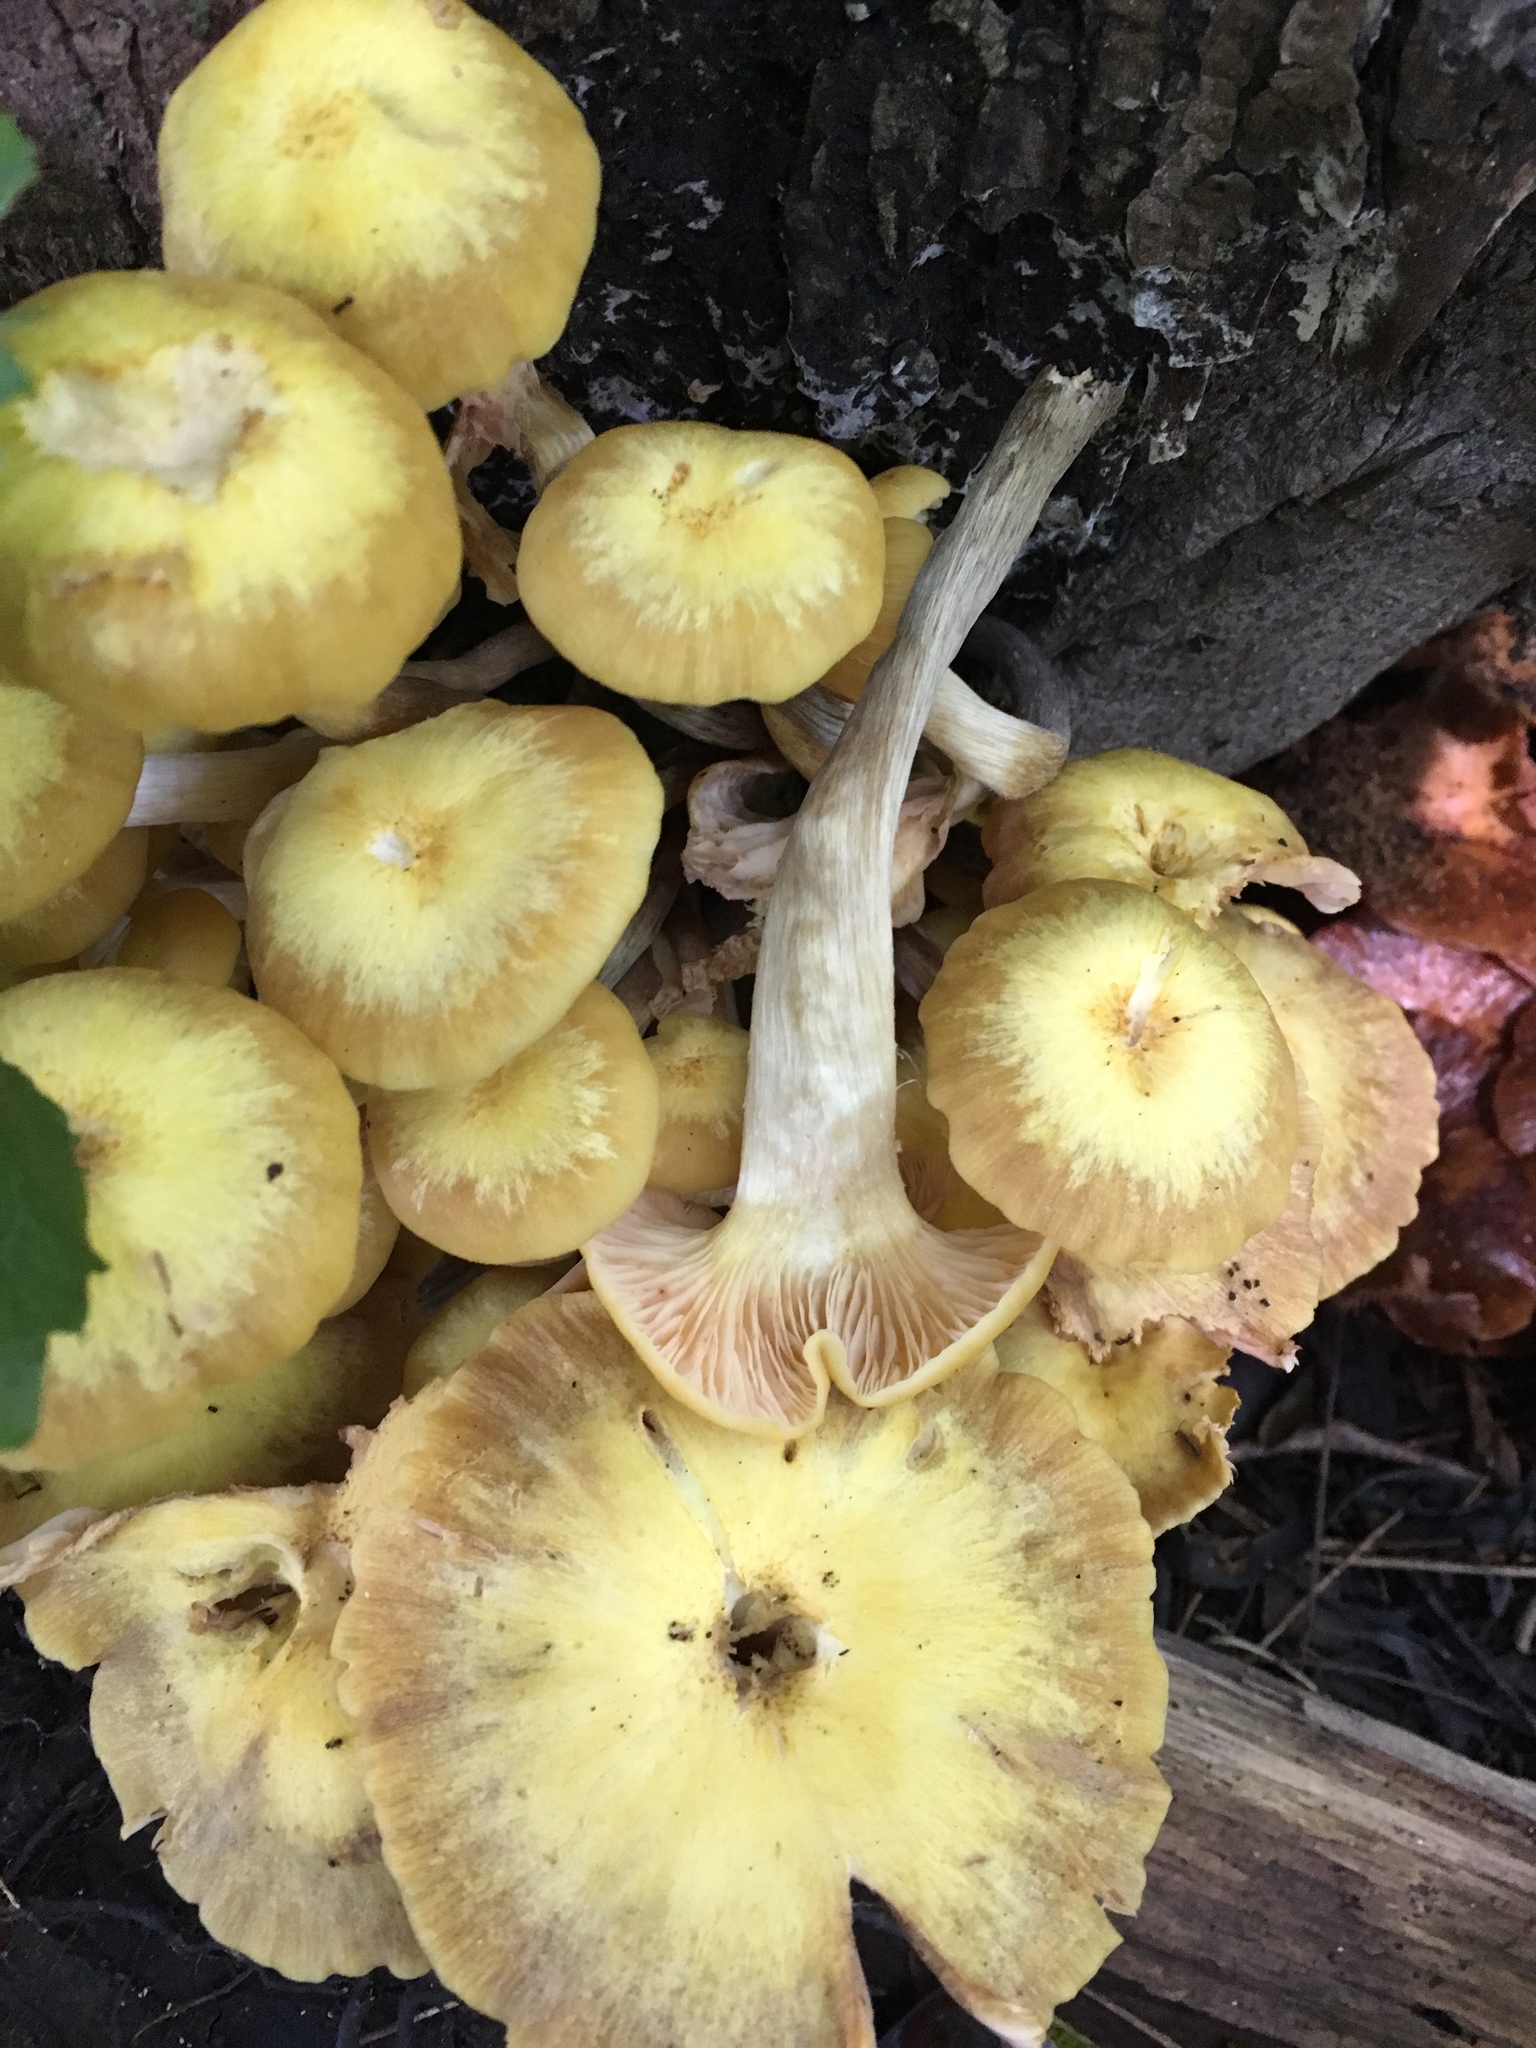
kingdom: Fungi
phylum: Basidiomycota
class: Agaricomycetes
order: Agaricales
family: Physalacriaceae
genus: Desarmillaria
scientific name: Desarmillaria caespitosa
